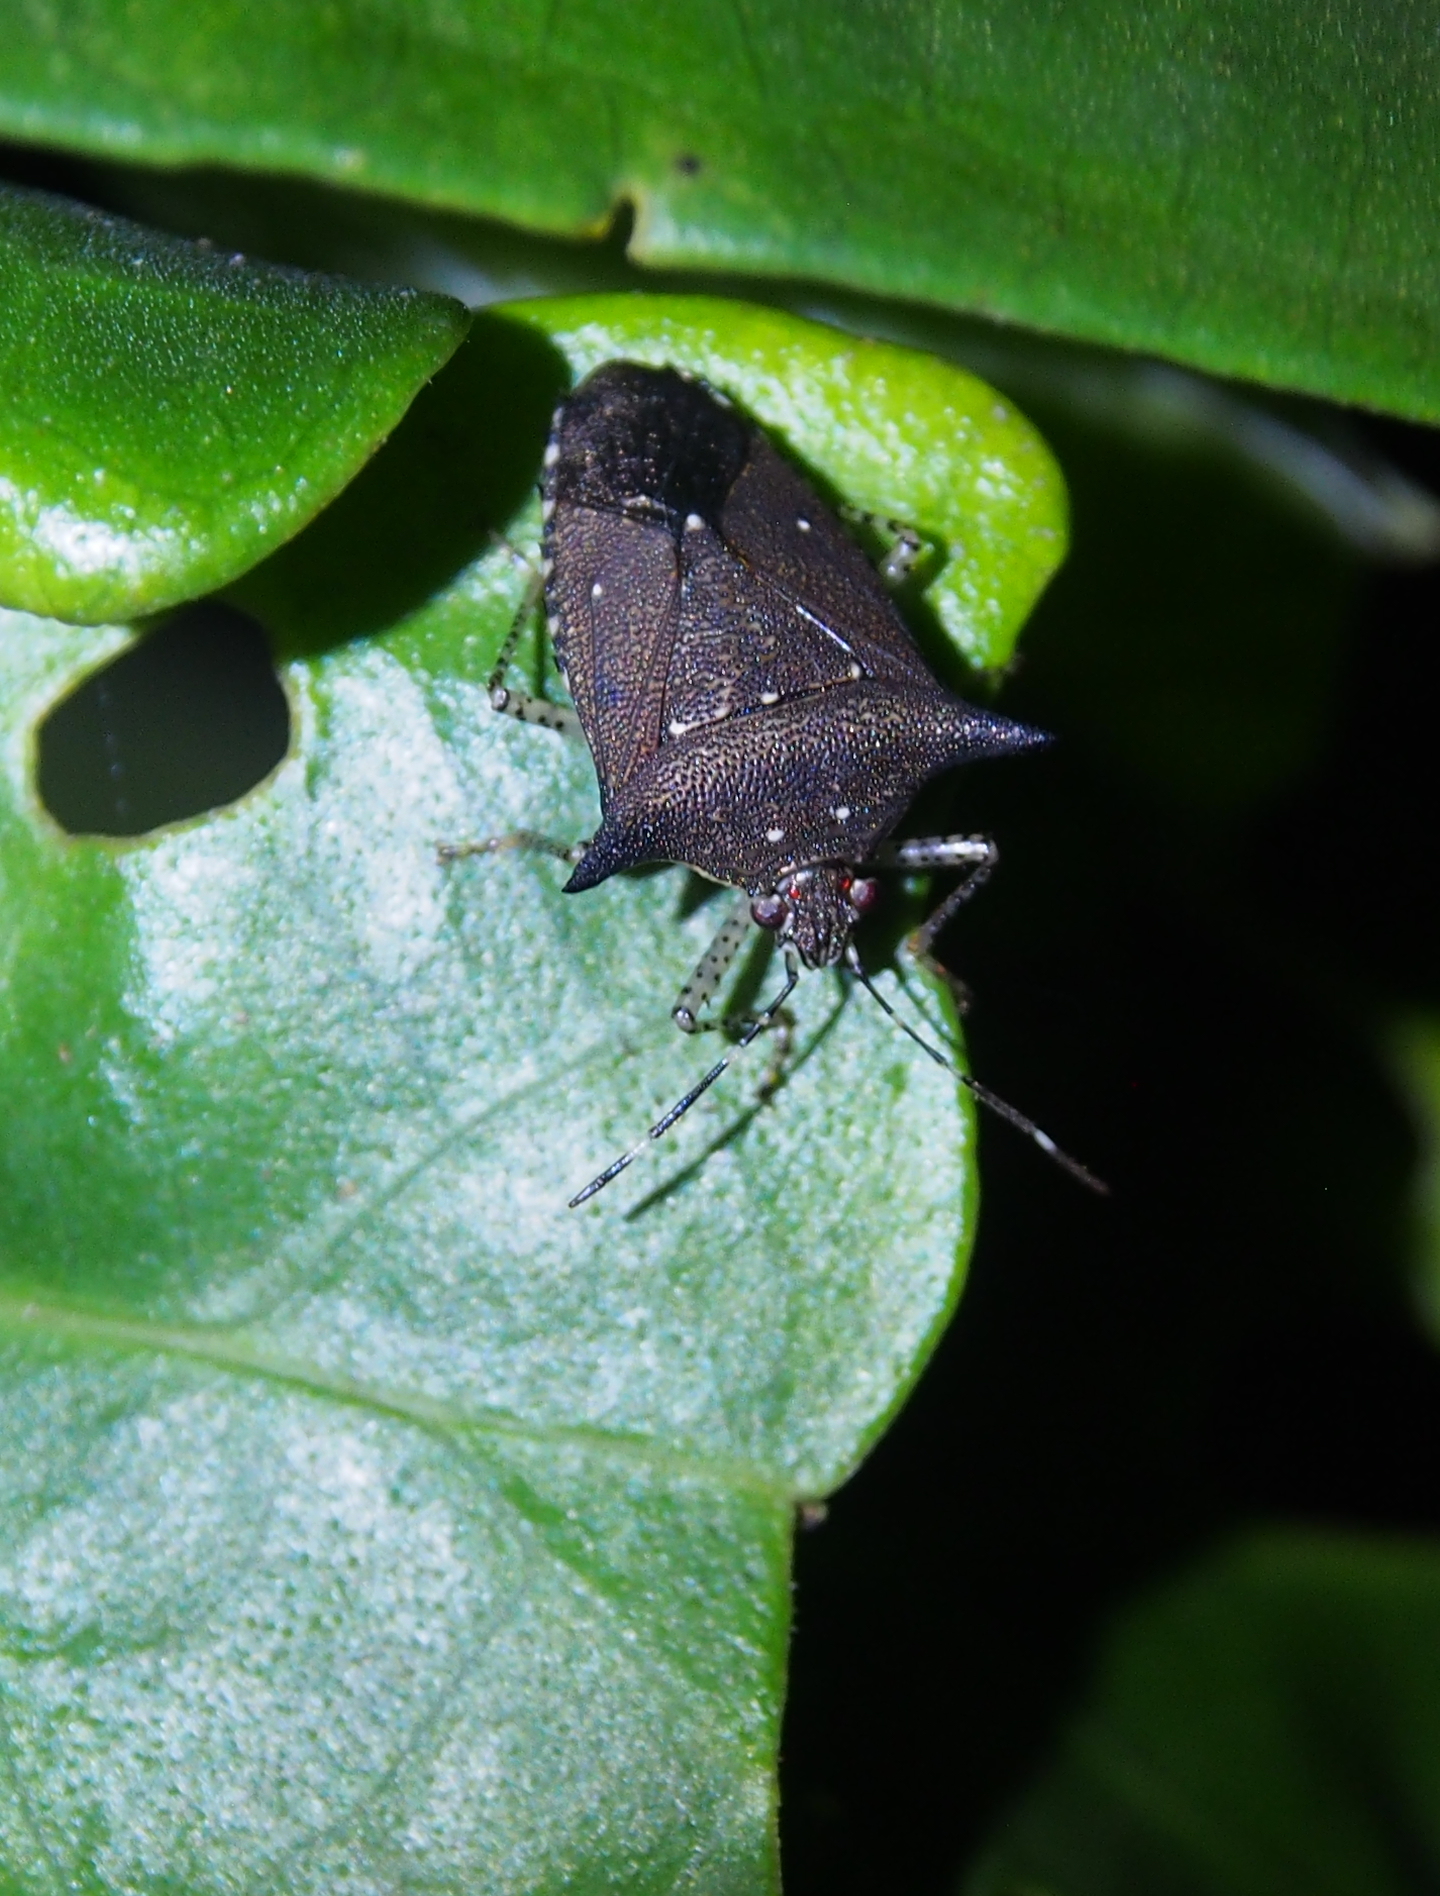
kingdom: Animalia
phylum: Arthropoda
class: Insecta
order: Hemiptera
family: Pentatomidae
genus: Sibaria
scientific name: Sibaria englemani
